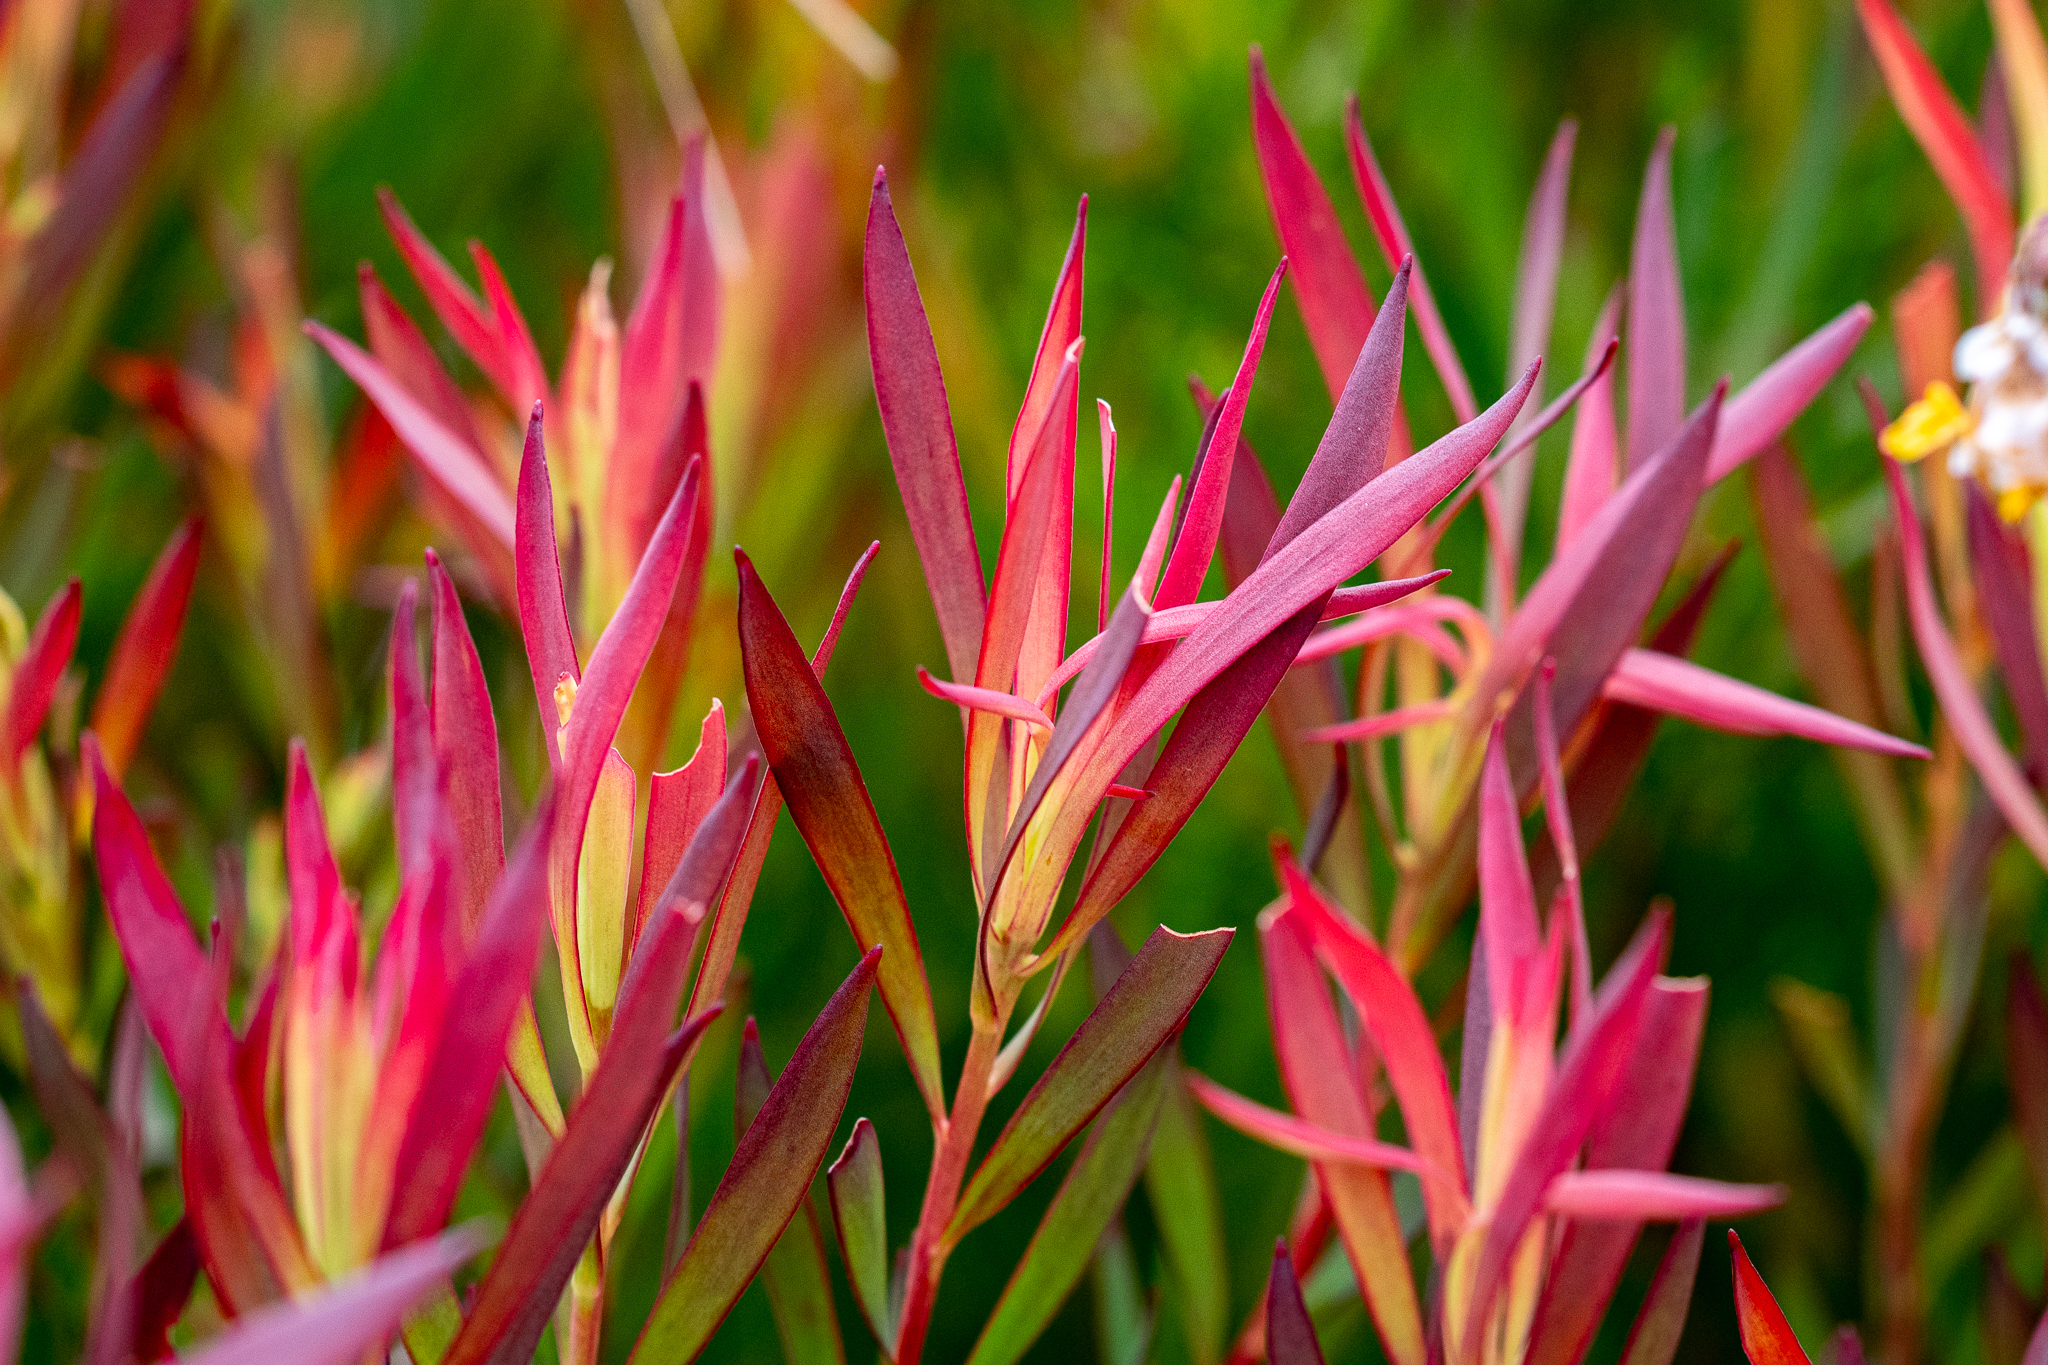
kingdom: Plantae
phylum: Tracheophyta
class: Magnoliopsida
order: Proteales
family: Proteaceae
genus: Leucadendron
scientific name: Leucadendron salignum
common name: Common sunshine conebush
